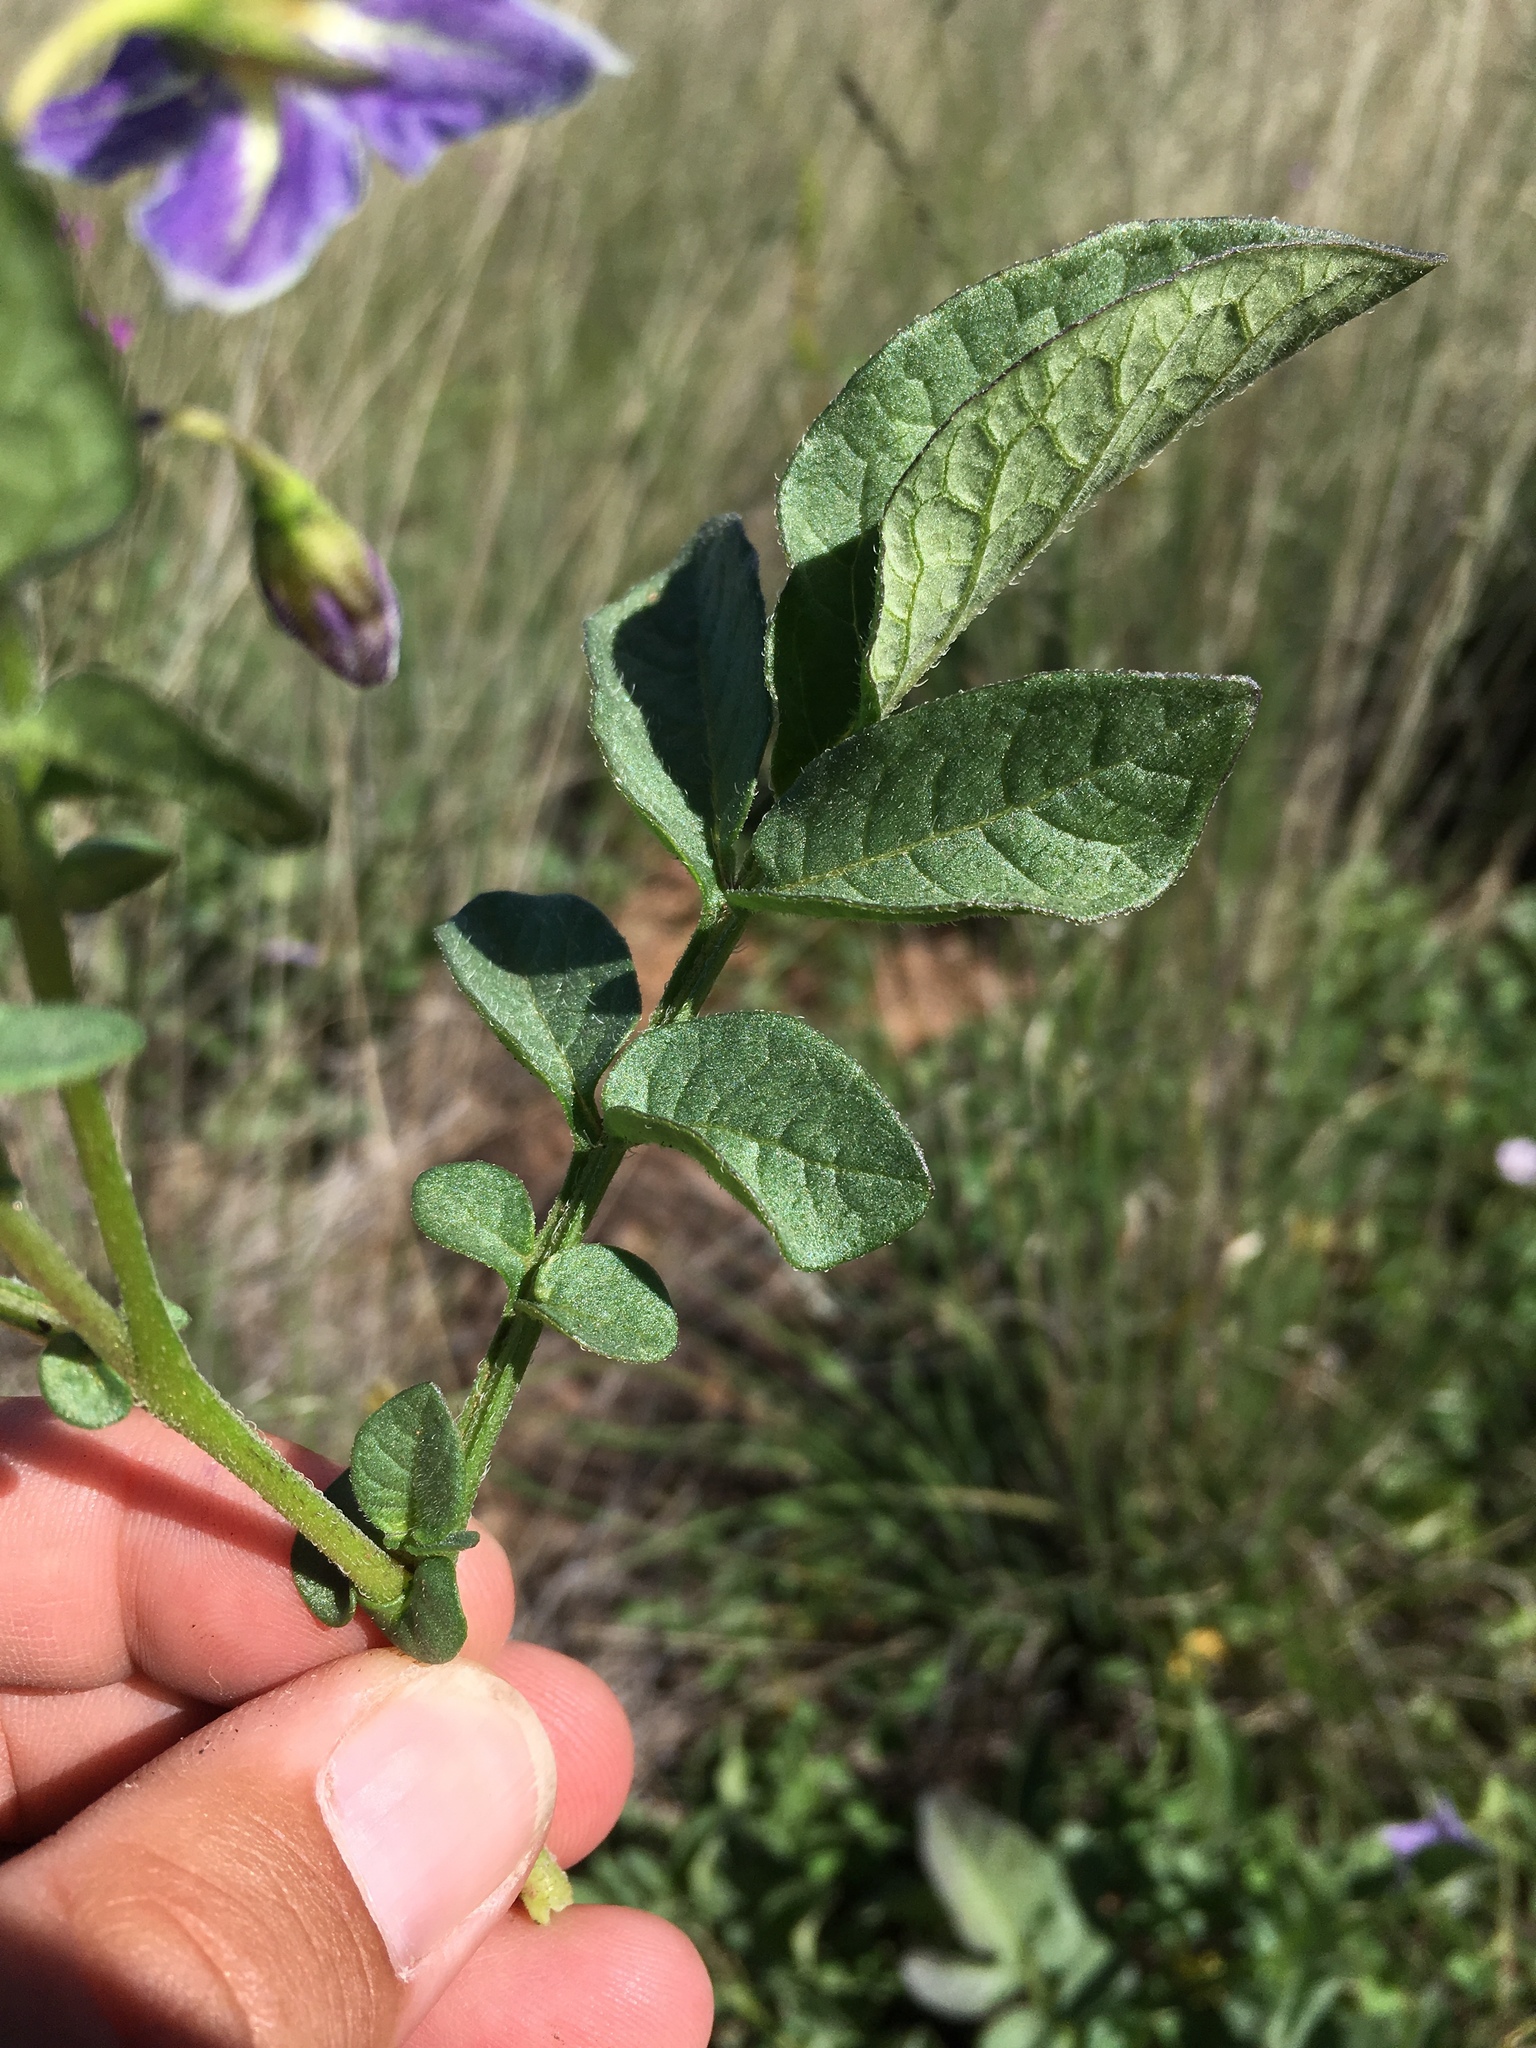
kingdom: Plantae
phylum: Tracheophyta
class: Magnoliopsida
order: Solanales
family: Solanaceae
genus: Solanum
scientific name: Solanum stoloniferum
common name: Fendler's nighshade
